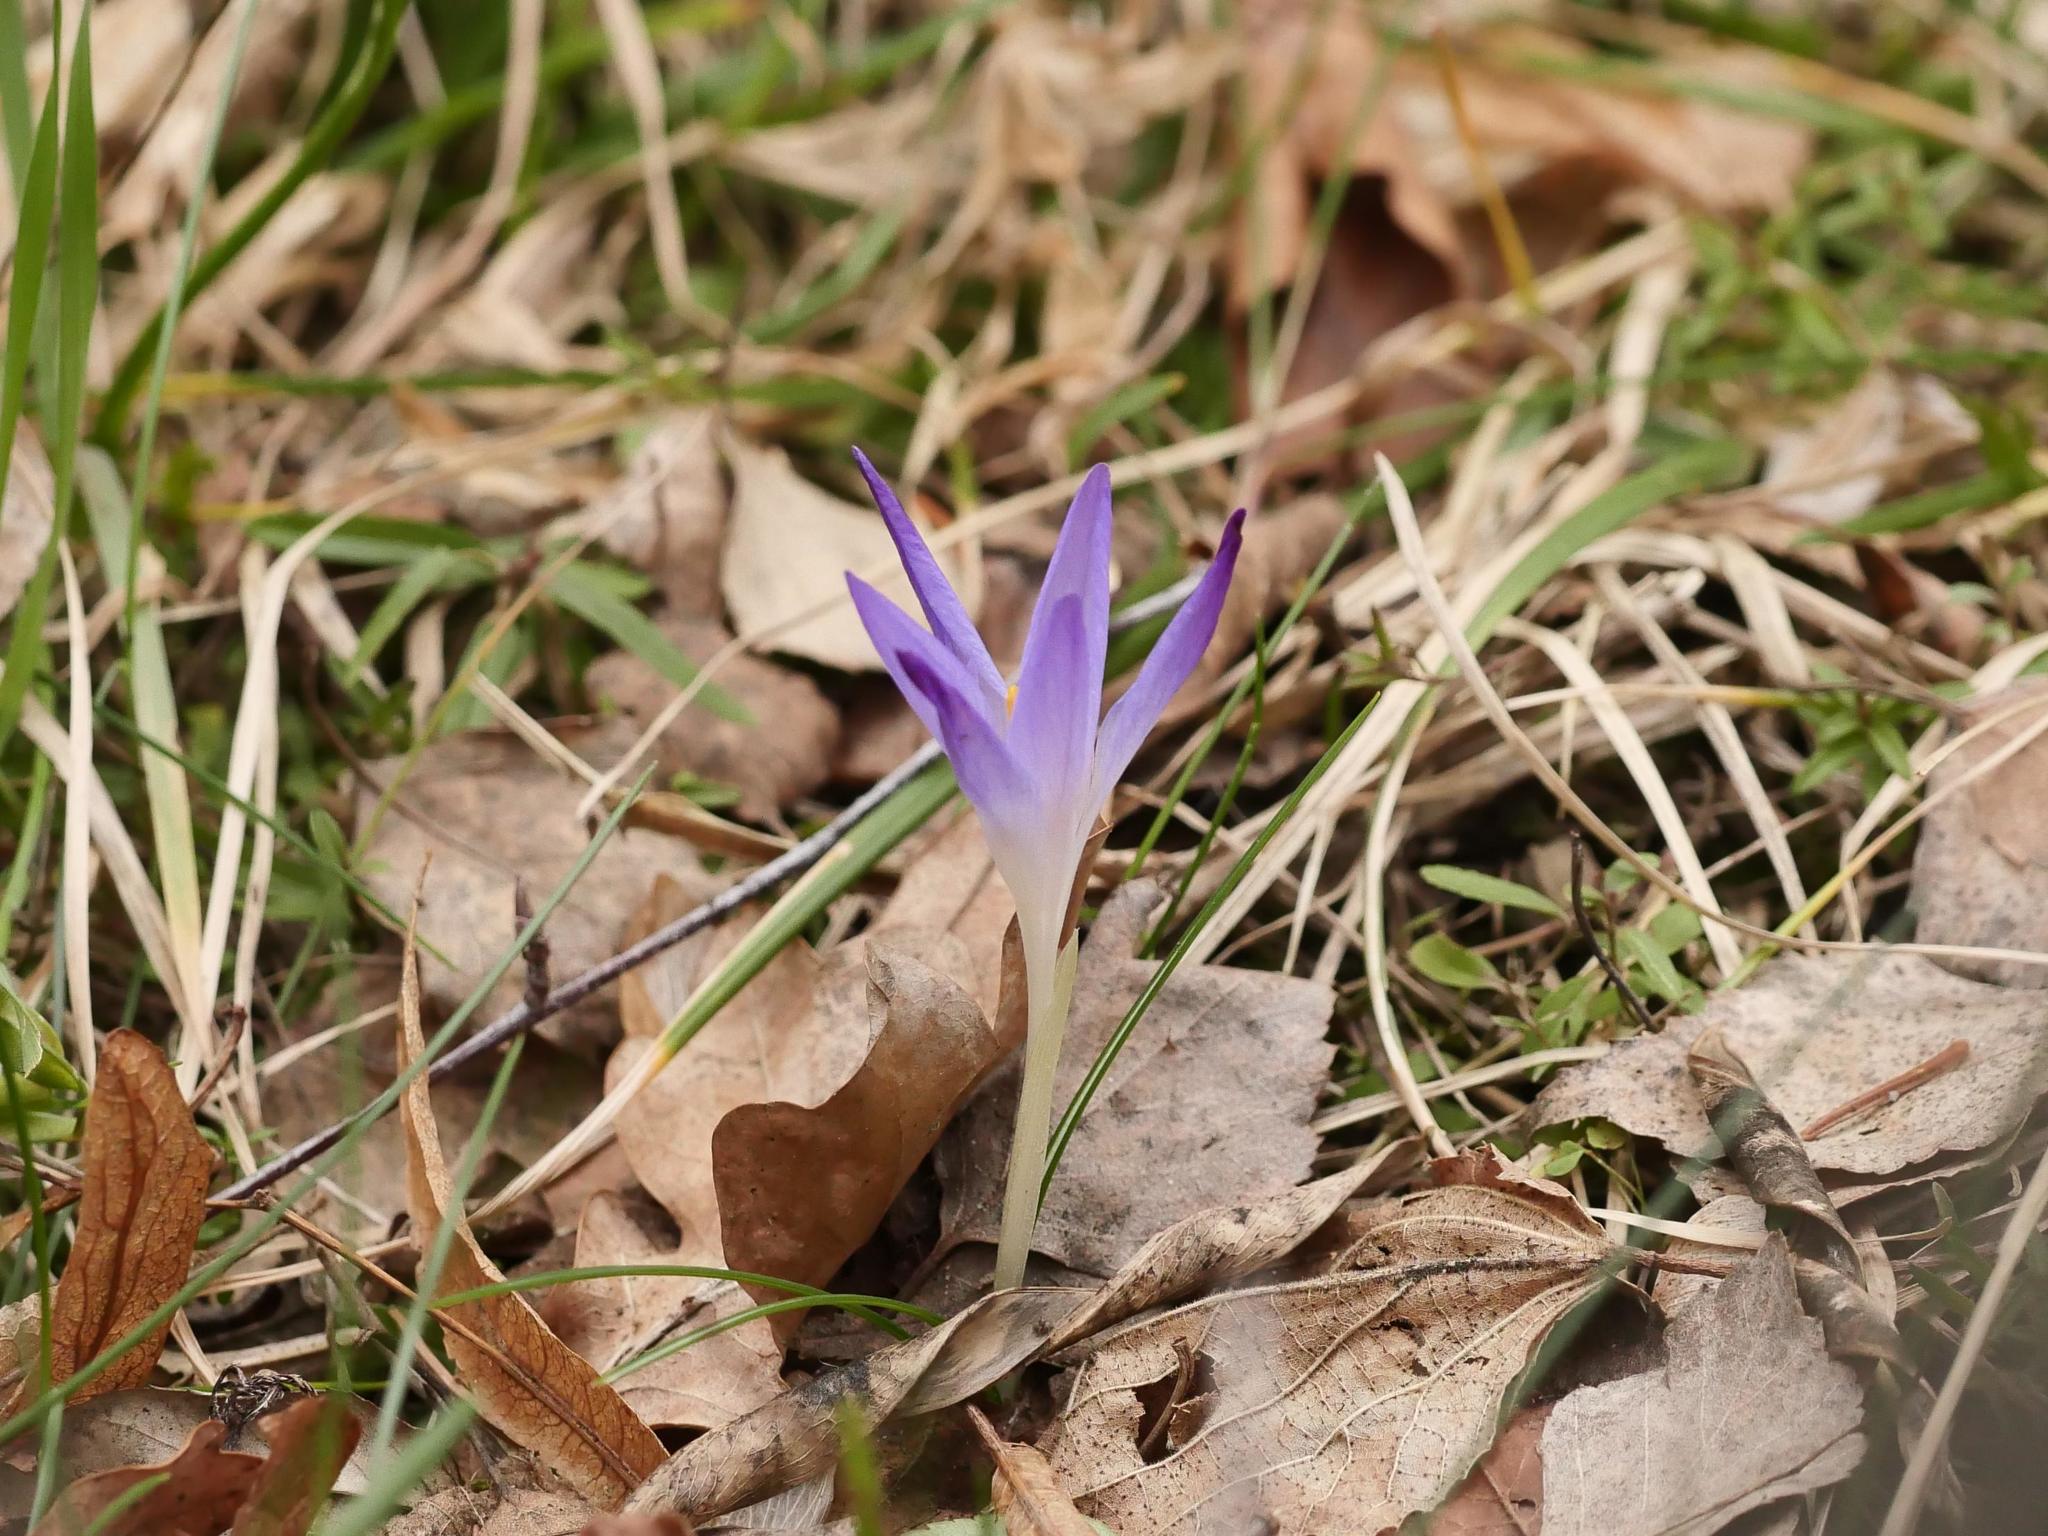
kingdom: Plantae
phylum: Tracheophyta
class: Liliopsida
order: Asparagales
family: Iridaceae
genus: Crocus
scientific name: Crocus tommasinianus
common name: Early crocus
